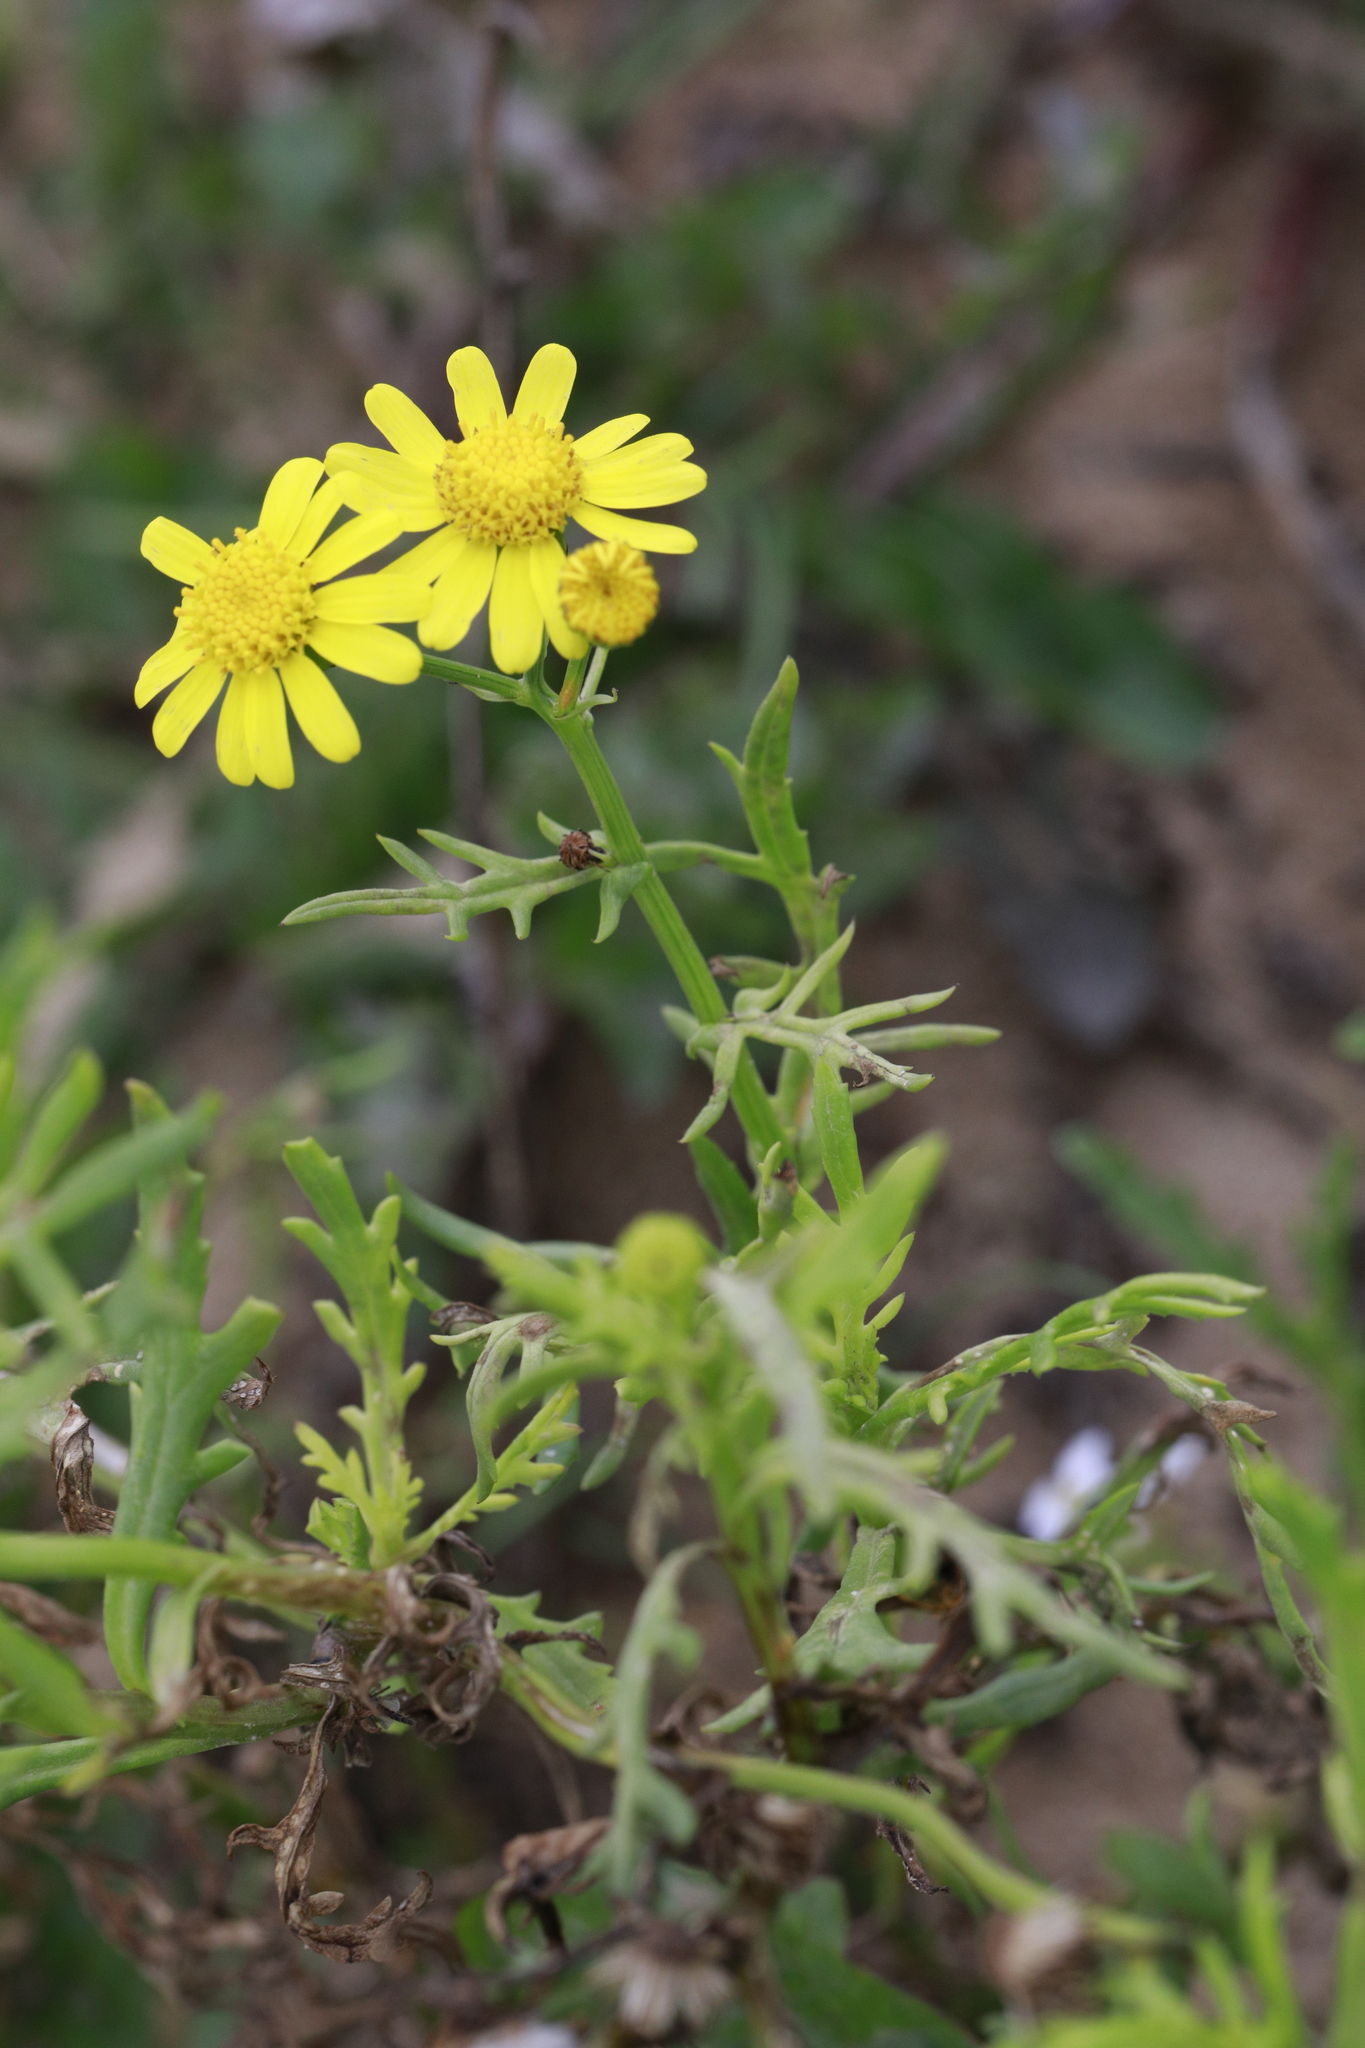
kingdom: Plantae
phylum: Tracheophyta
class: Magnoliopsida
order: Asterales
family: Asteraceae
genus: Senecio
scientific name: Senecio squalidus
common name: Oxford ragwort
